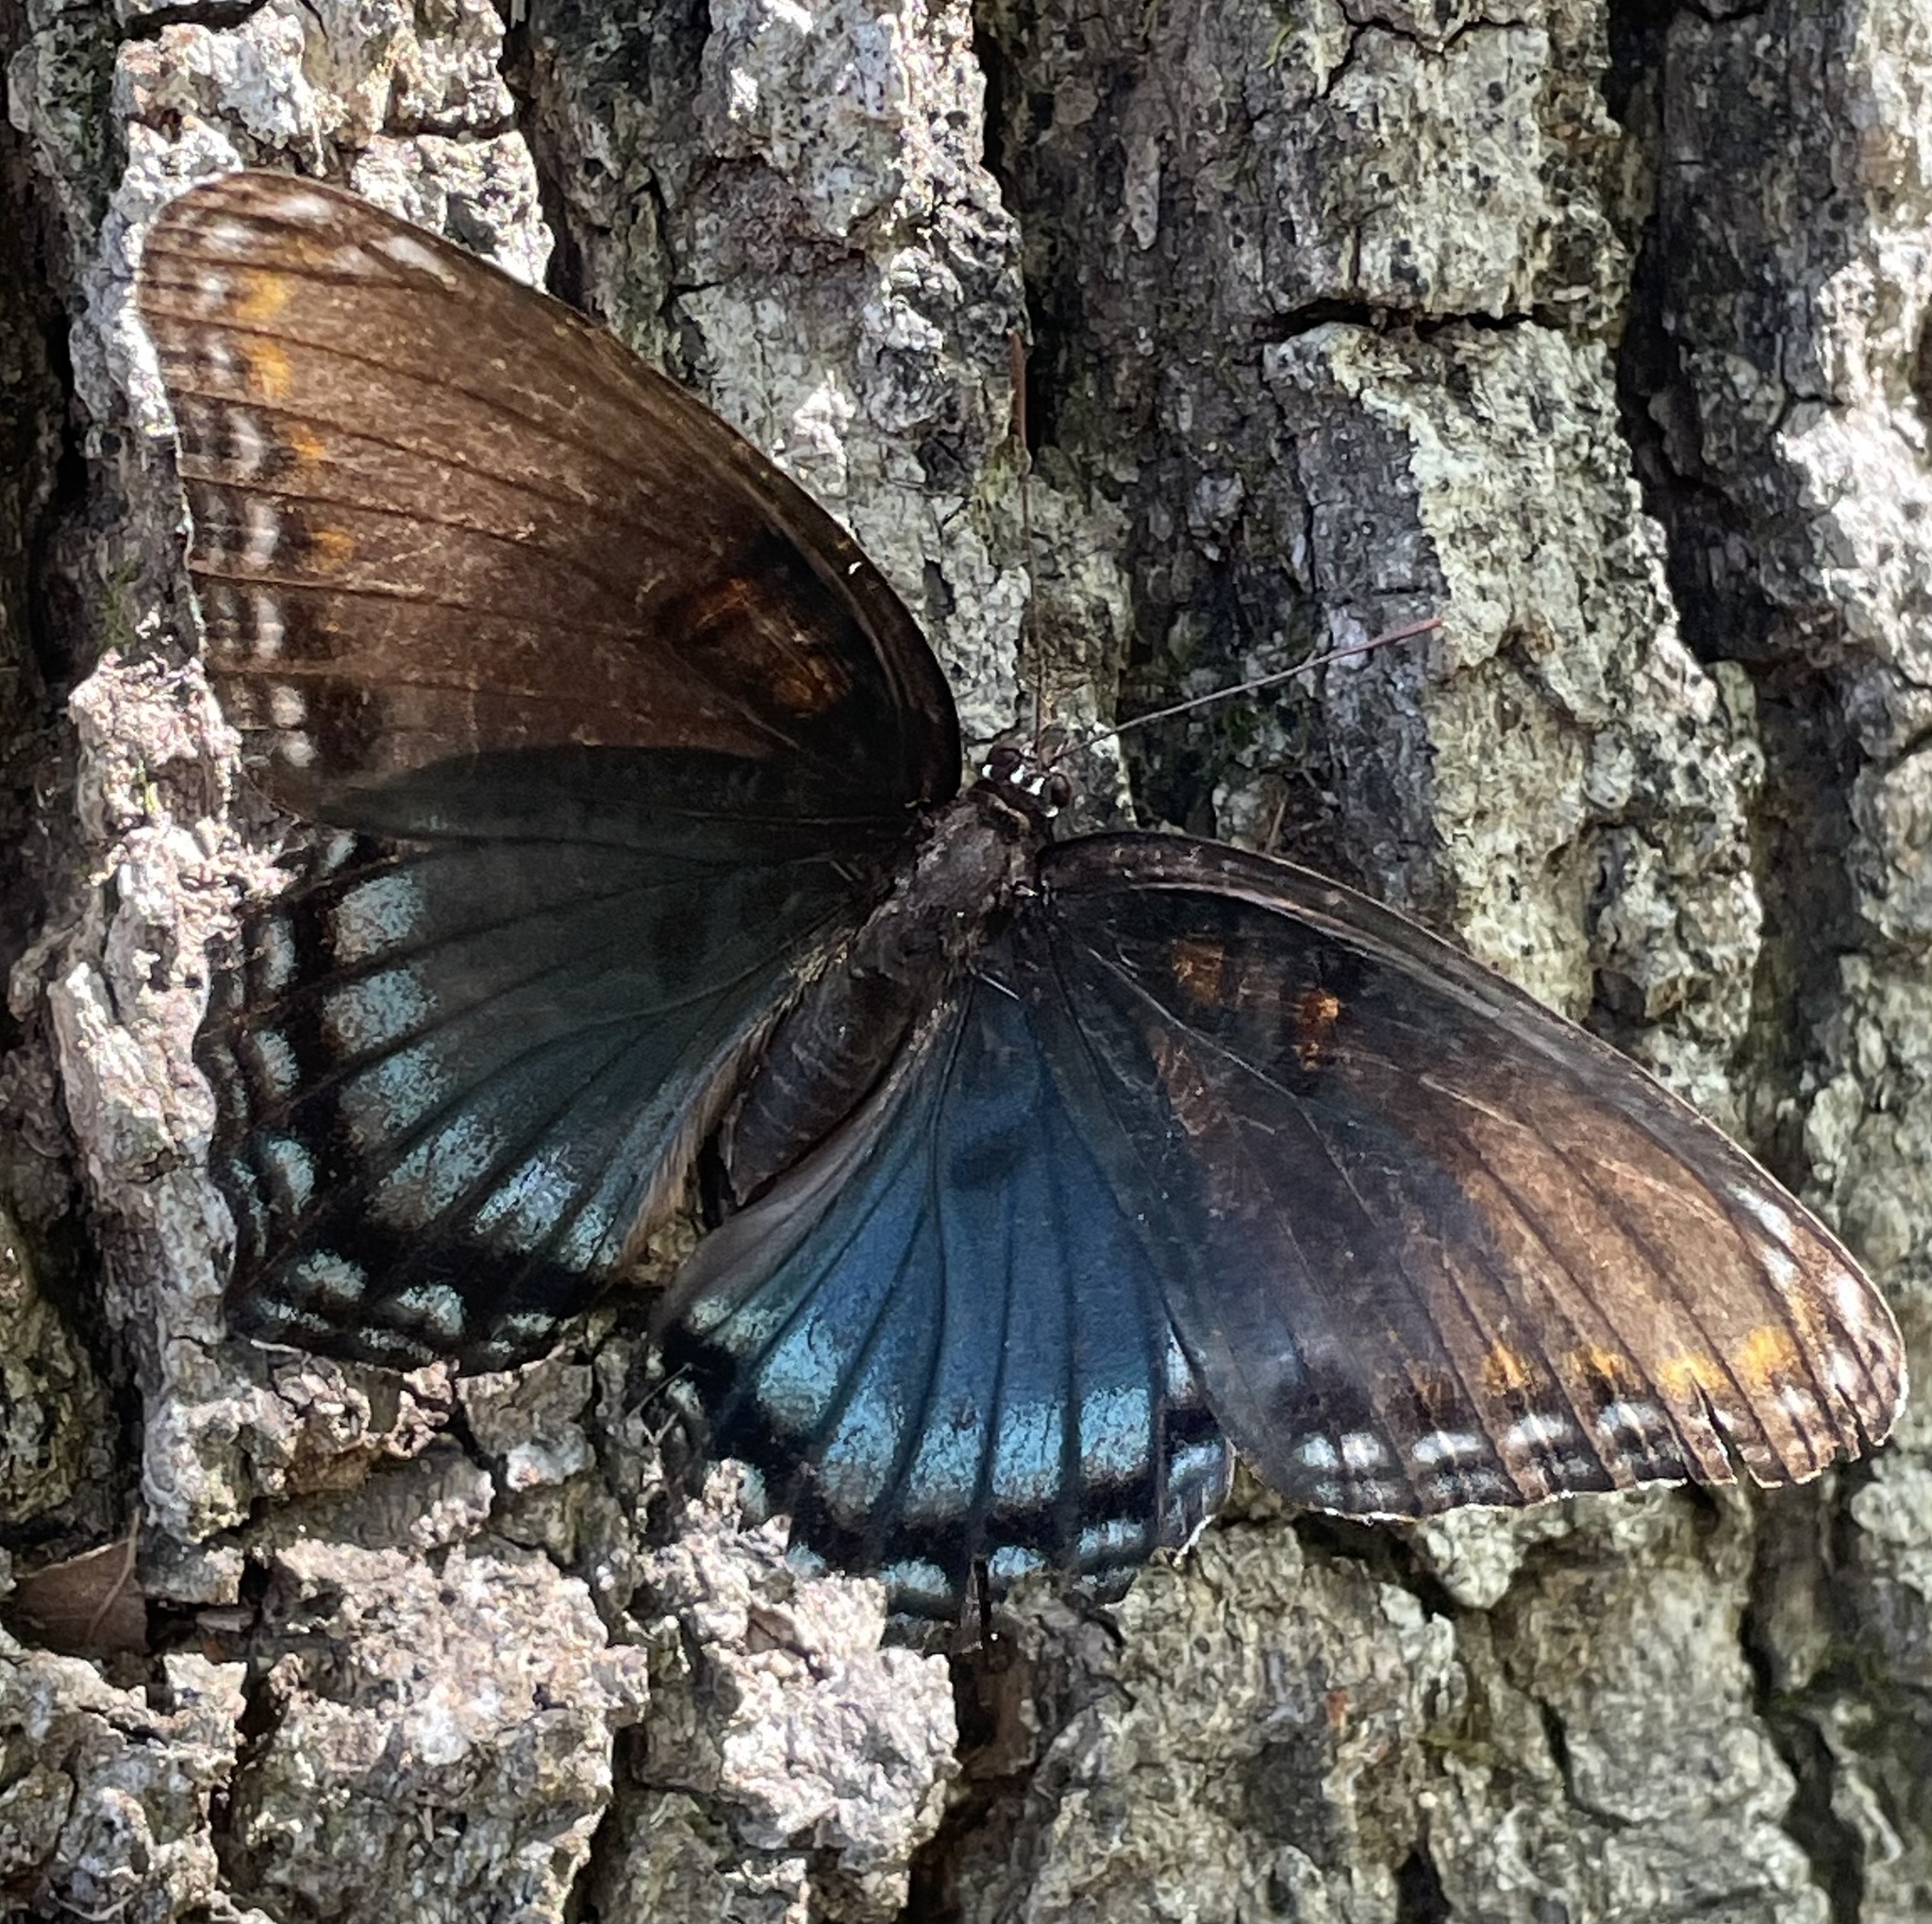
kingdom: Animalia
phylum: Arthropoda
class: Insecta
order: Lepidoptera
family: Nymphalidae
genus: Limenitis
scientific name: Limenitis astyanax
